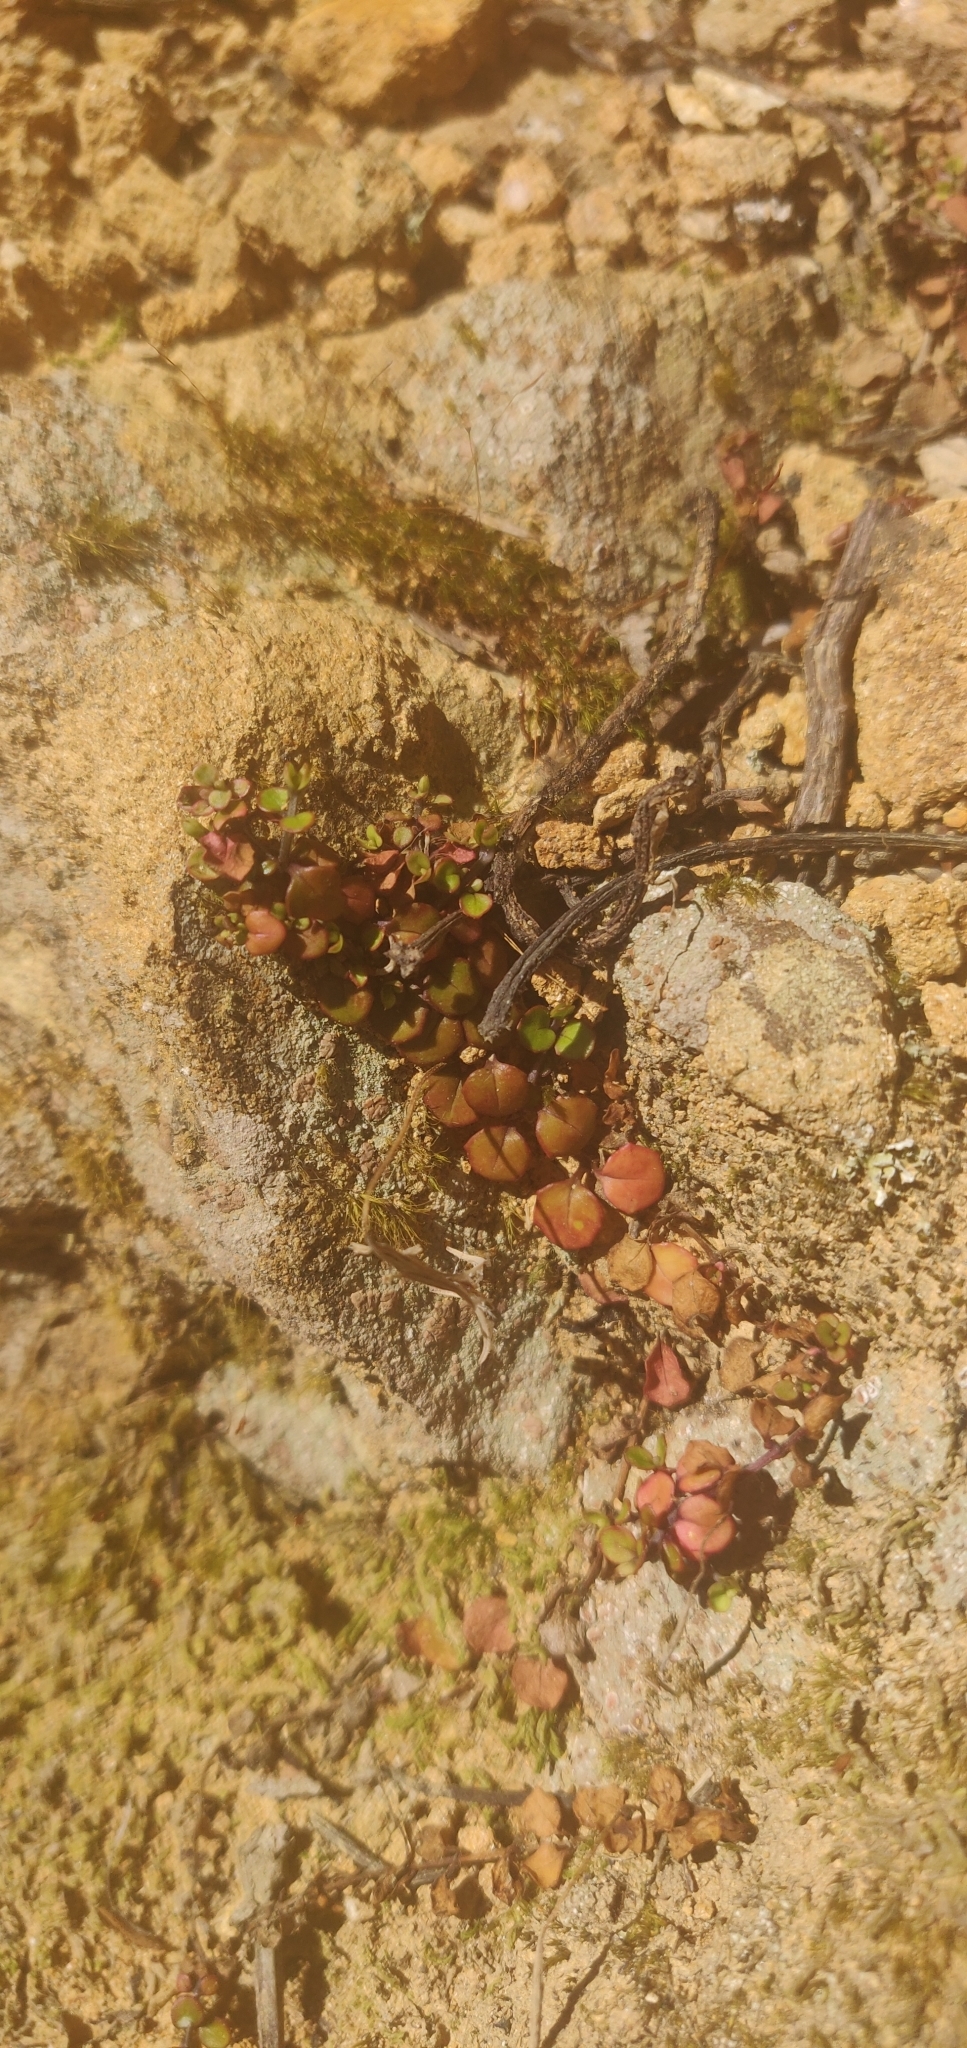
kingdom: Plantae
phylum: Tracheophyta
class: Magnoliopsida
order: Myrtales
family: Onagraceae
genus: Epilobium
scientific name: Epilobium nummularifolium
